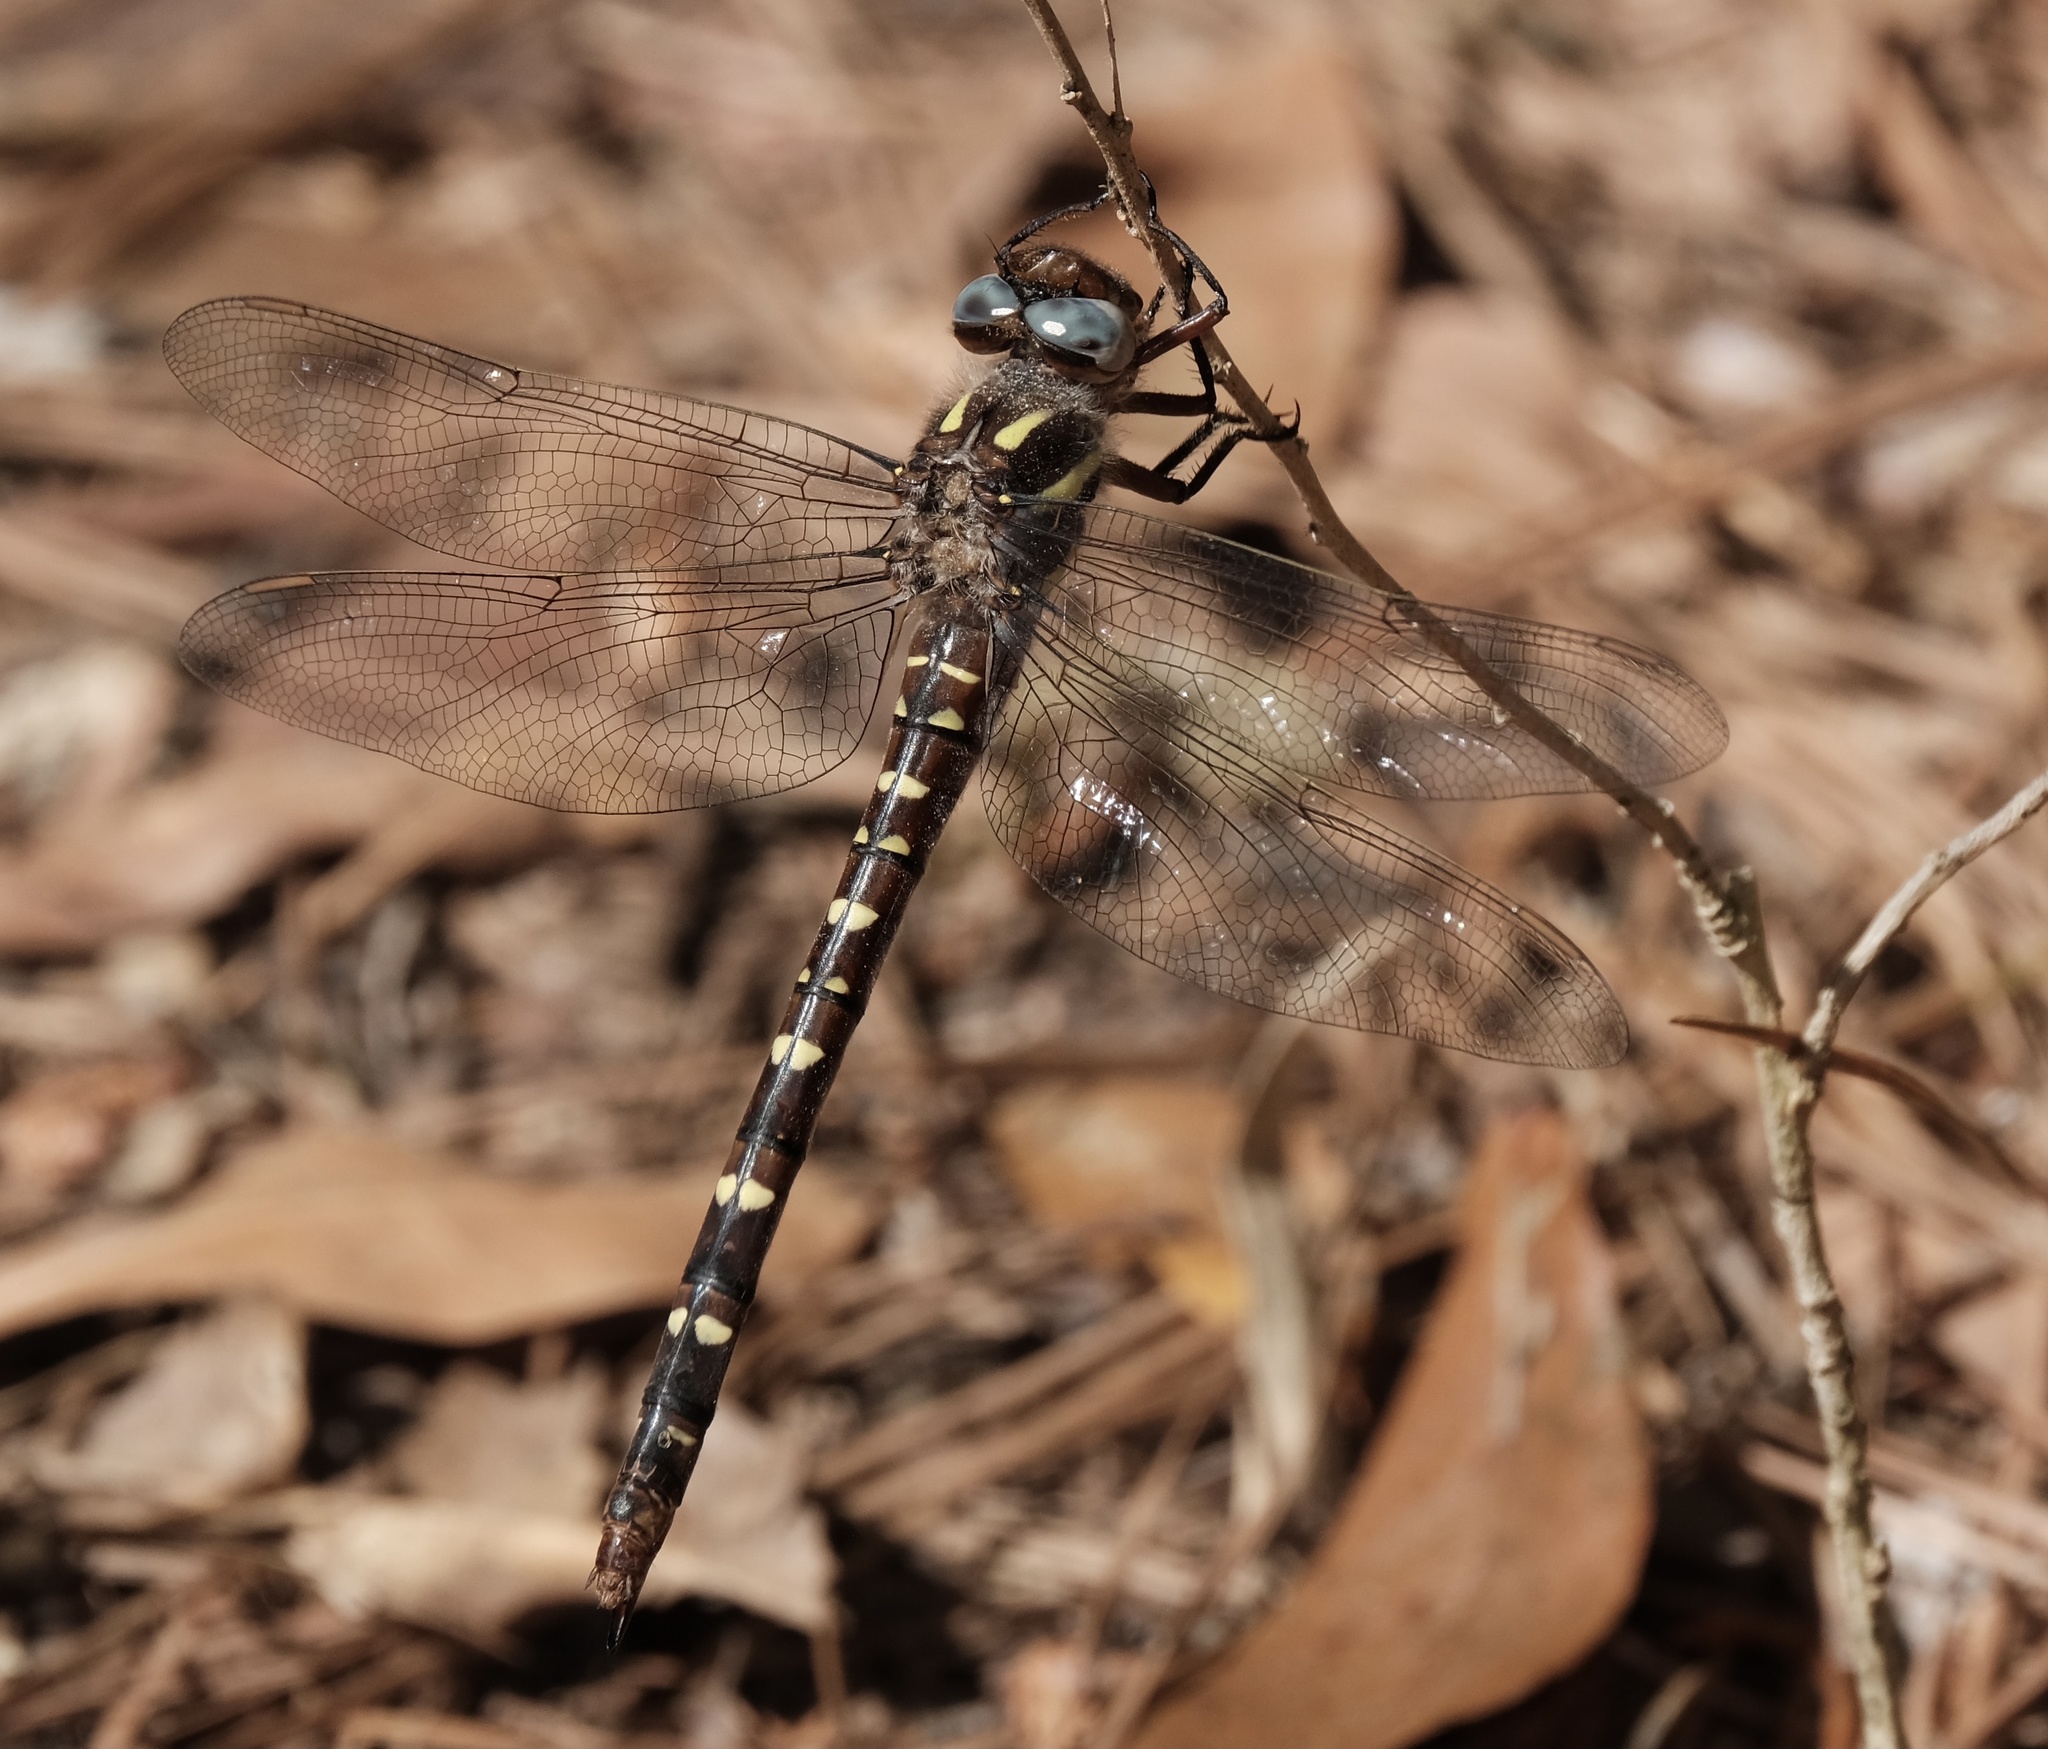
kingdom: Animalia
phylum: Arthropoda
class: Insecta
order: Odonata
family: Cordulegastridae
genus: Cordulegaster
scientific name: Cordulegaster maculata
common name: Twin-spotted spiketail
